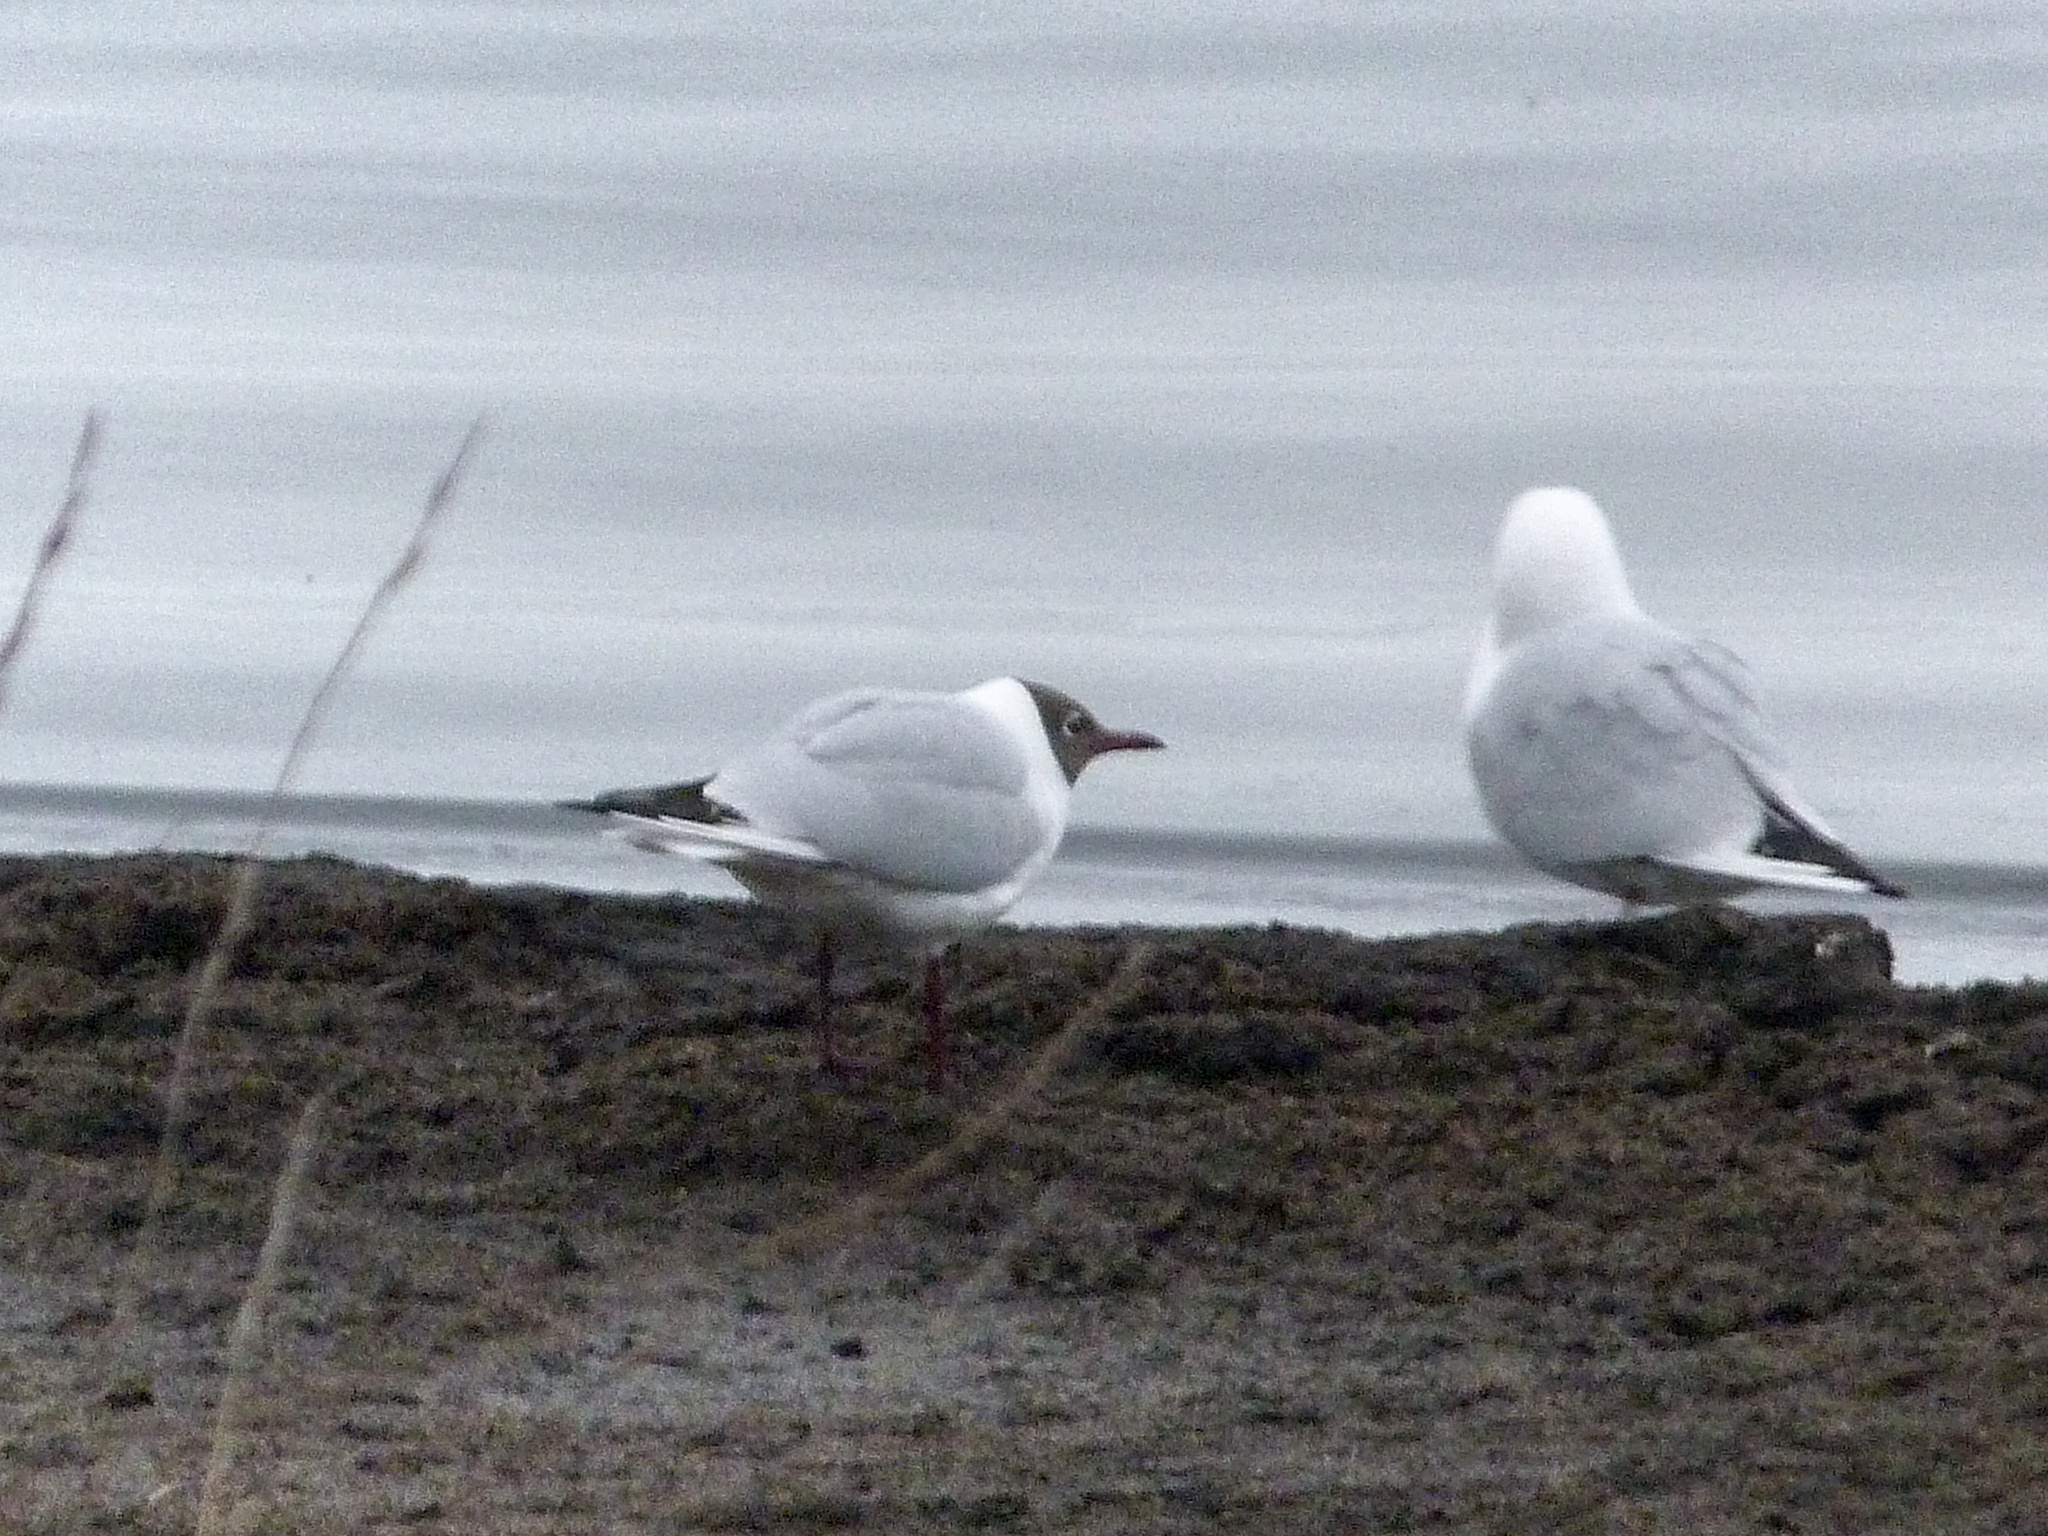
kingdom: Animalia
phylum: Chordata
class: Aves
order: Charadriiformes
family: Laridae
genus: Chroicocephalus
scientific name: Chroicocephalus ridibundus
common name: Black-headed gull
